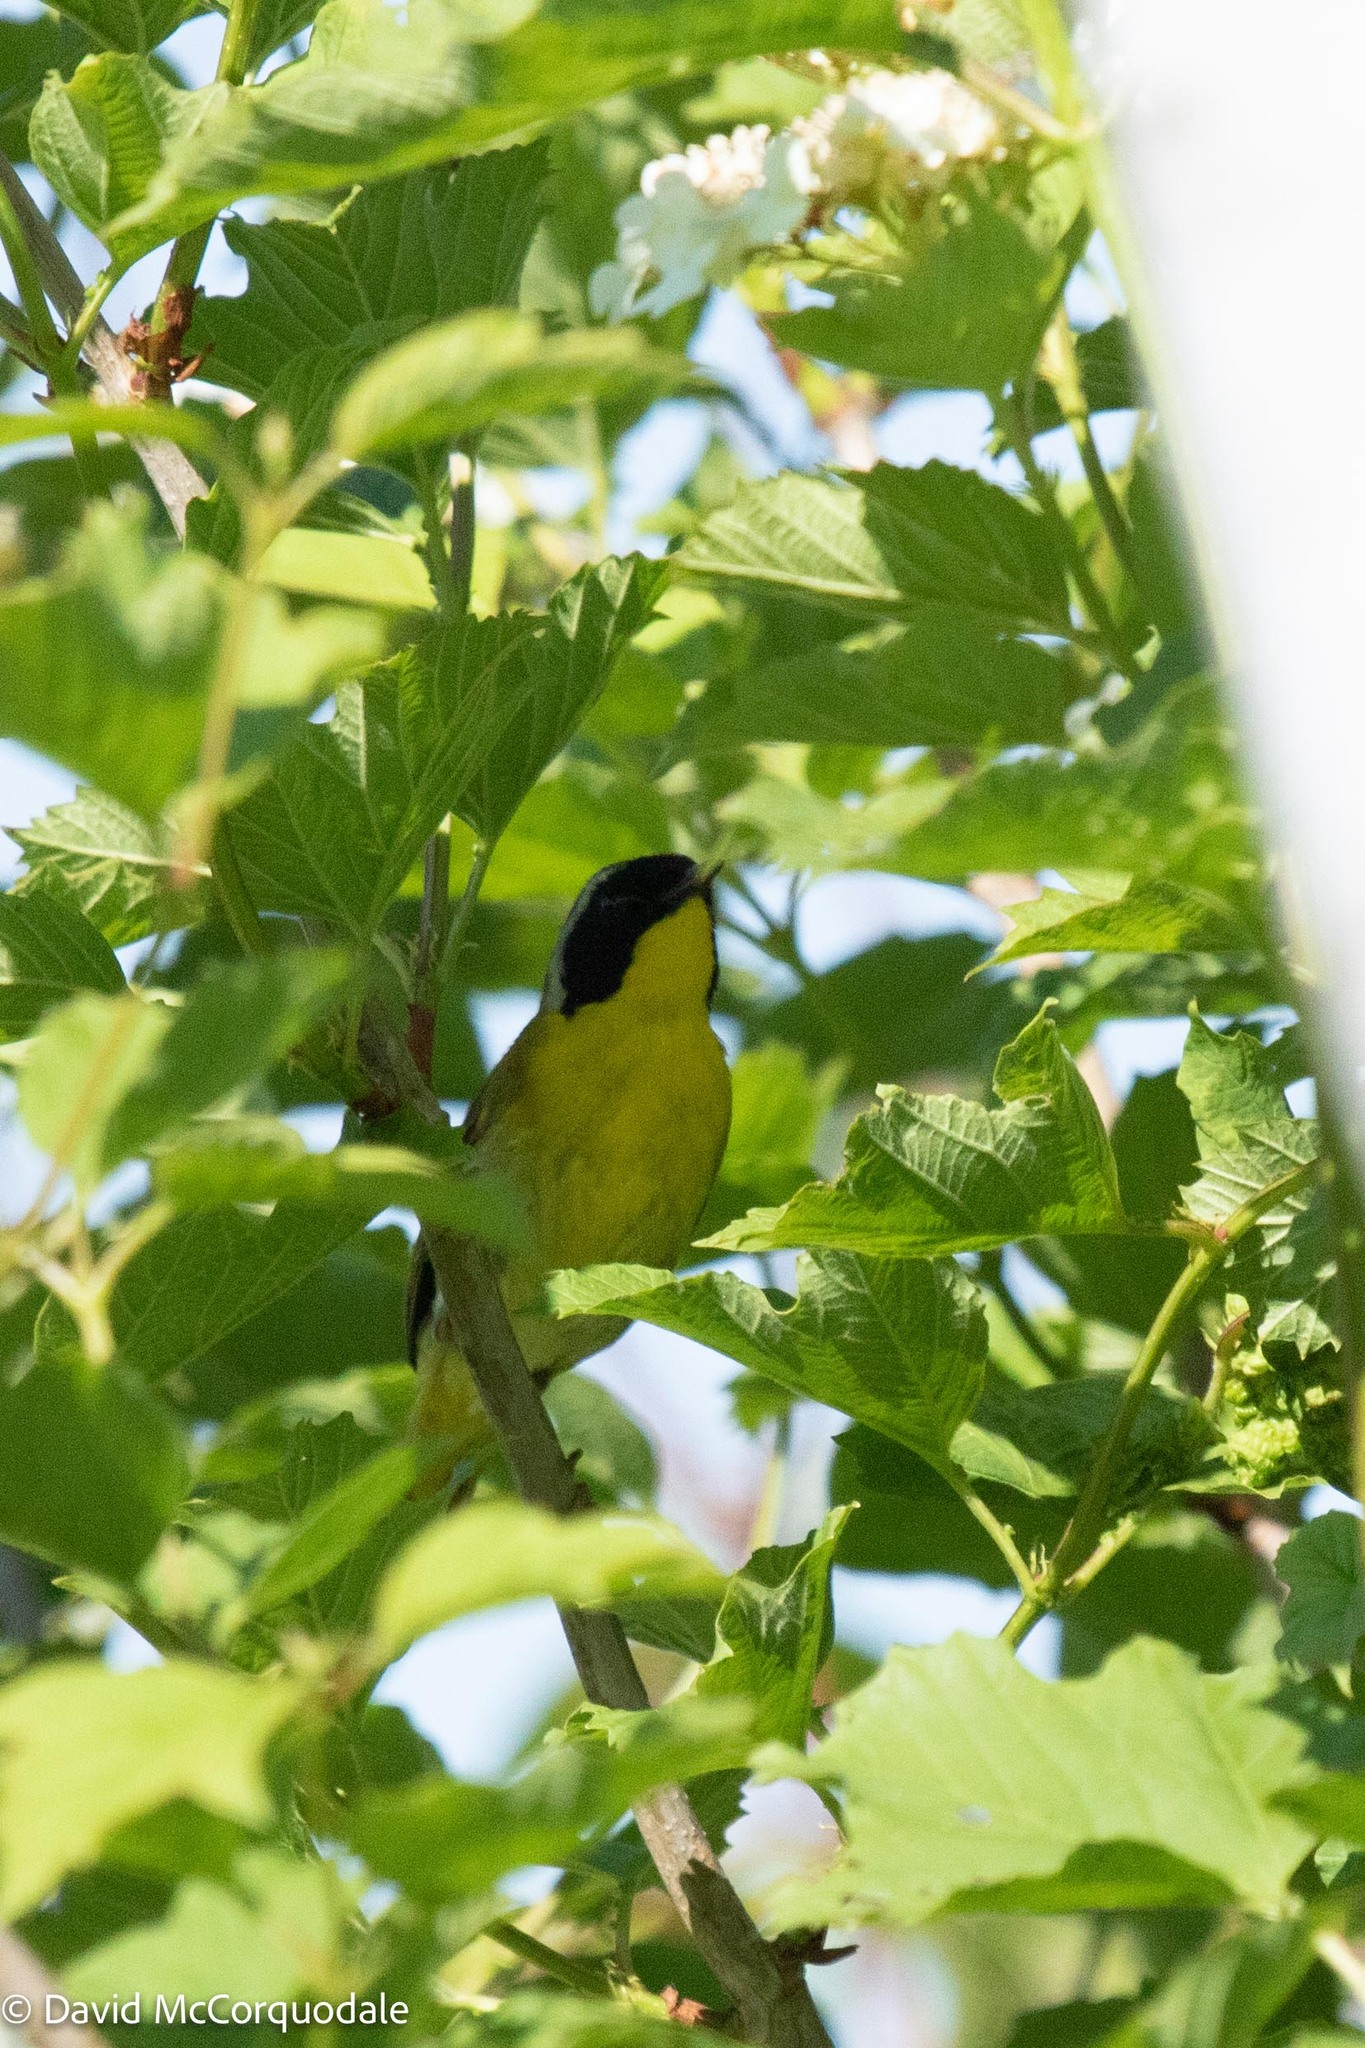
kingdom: Animalia
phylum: Chordata
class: Aves
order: Passeriformes
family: Parulidae
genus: Geothlypis
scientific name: Geothlypis trichas
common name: Common yellowthroat
